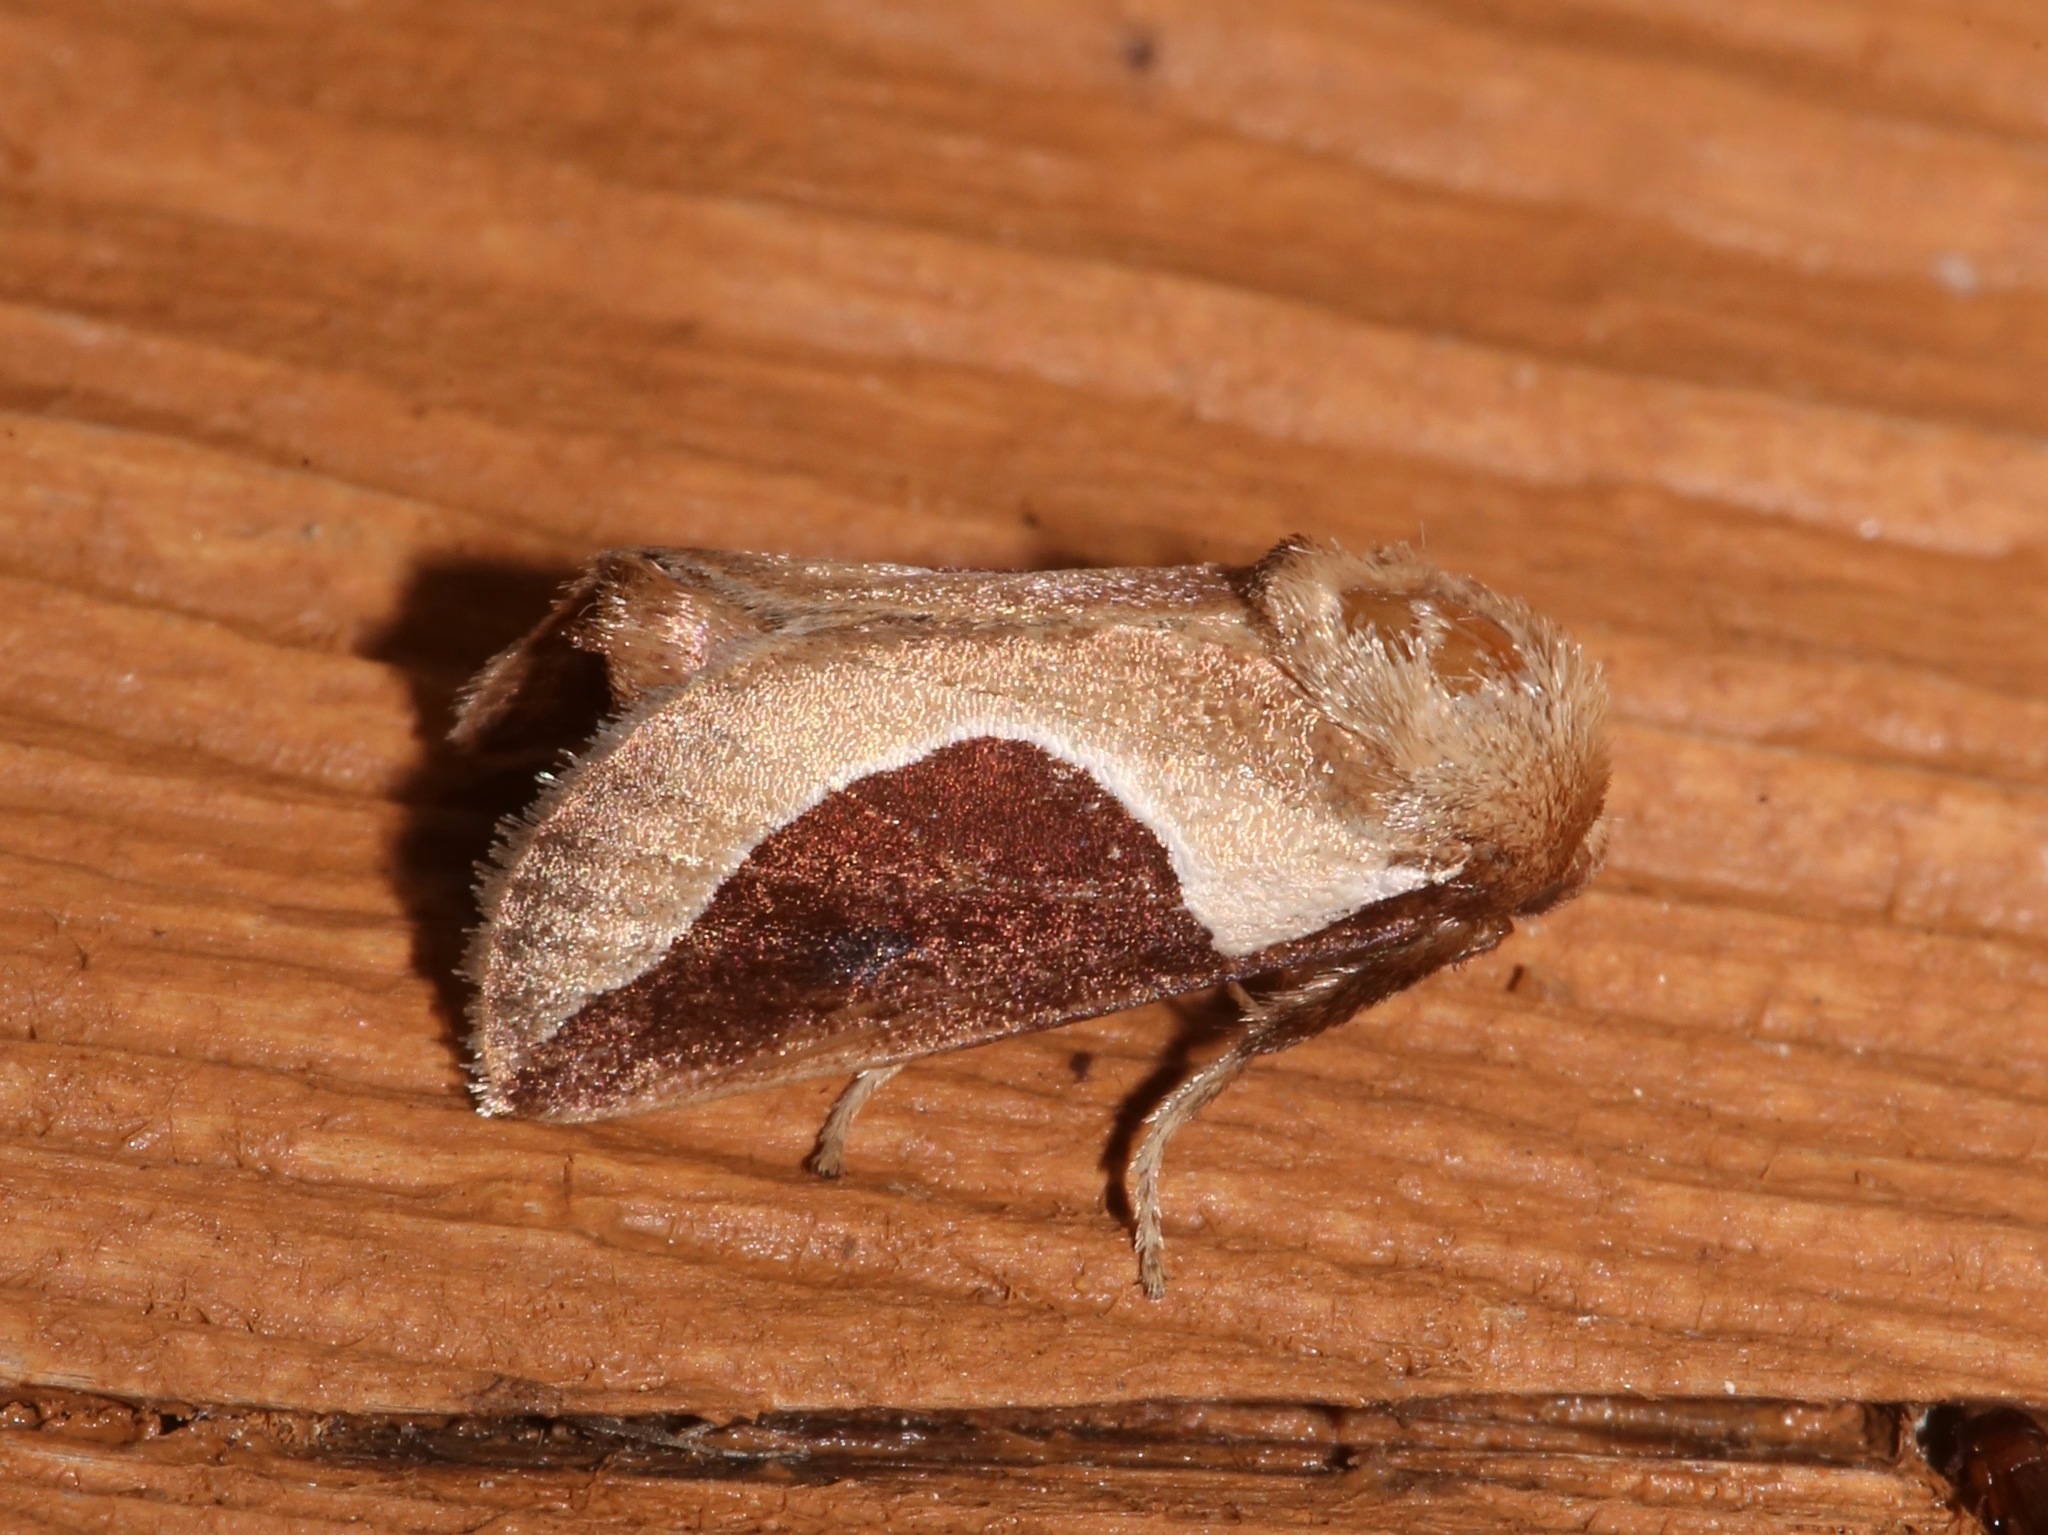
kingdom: Animalia
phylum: Arthropoda
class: Insecta
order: Lepidoptera
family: Limacodidae
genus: Prolimacodes
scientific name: Prolimacodes badia
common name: Skiff moth
